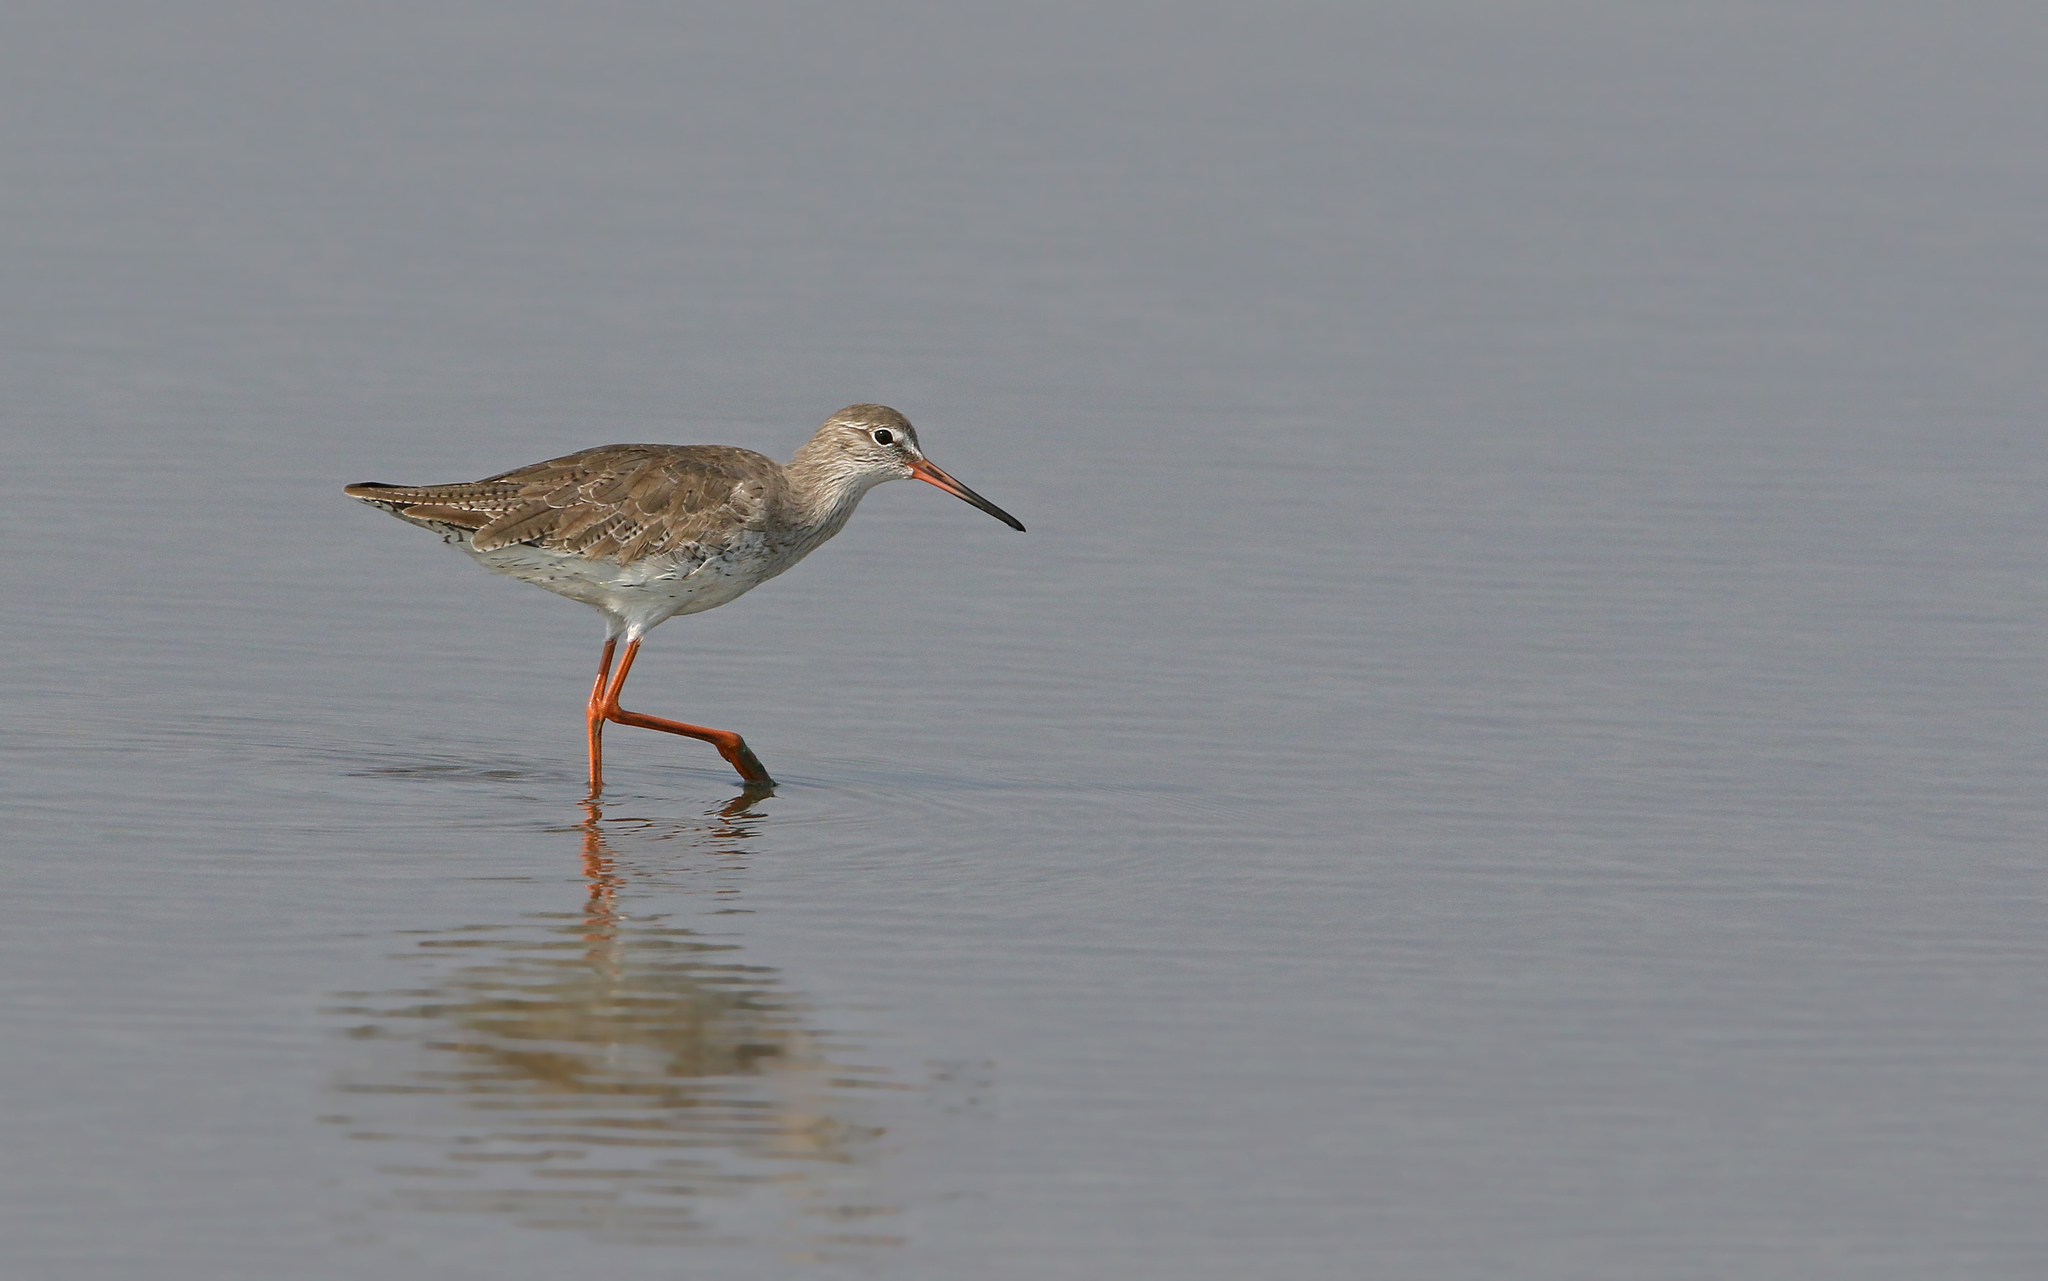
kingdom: Animalia
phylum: Chordata
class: Aves
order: Charadriiformes
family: Scolopacidae
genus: Tringa
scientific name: Tringa totanus
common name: Common redshank
